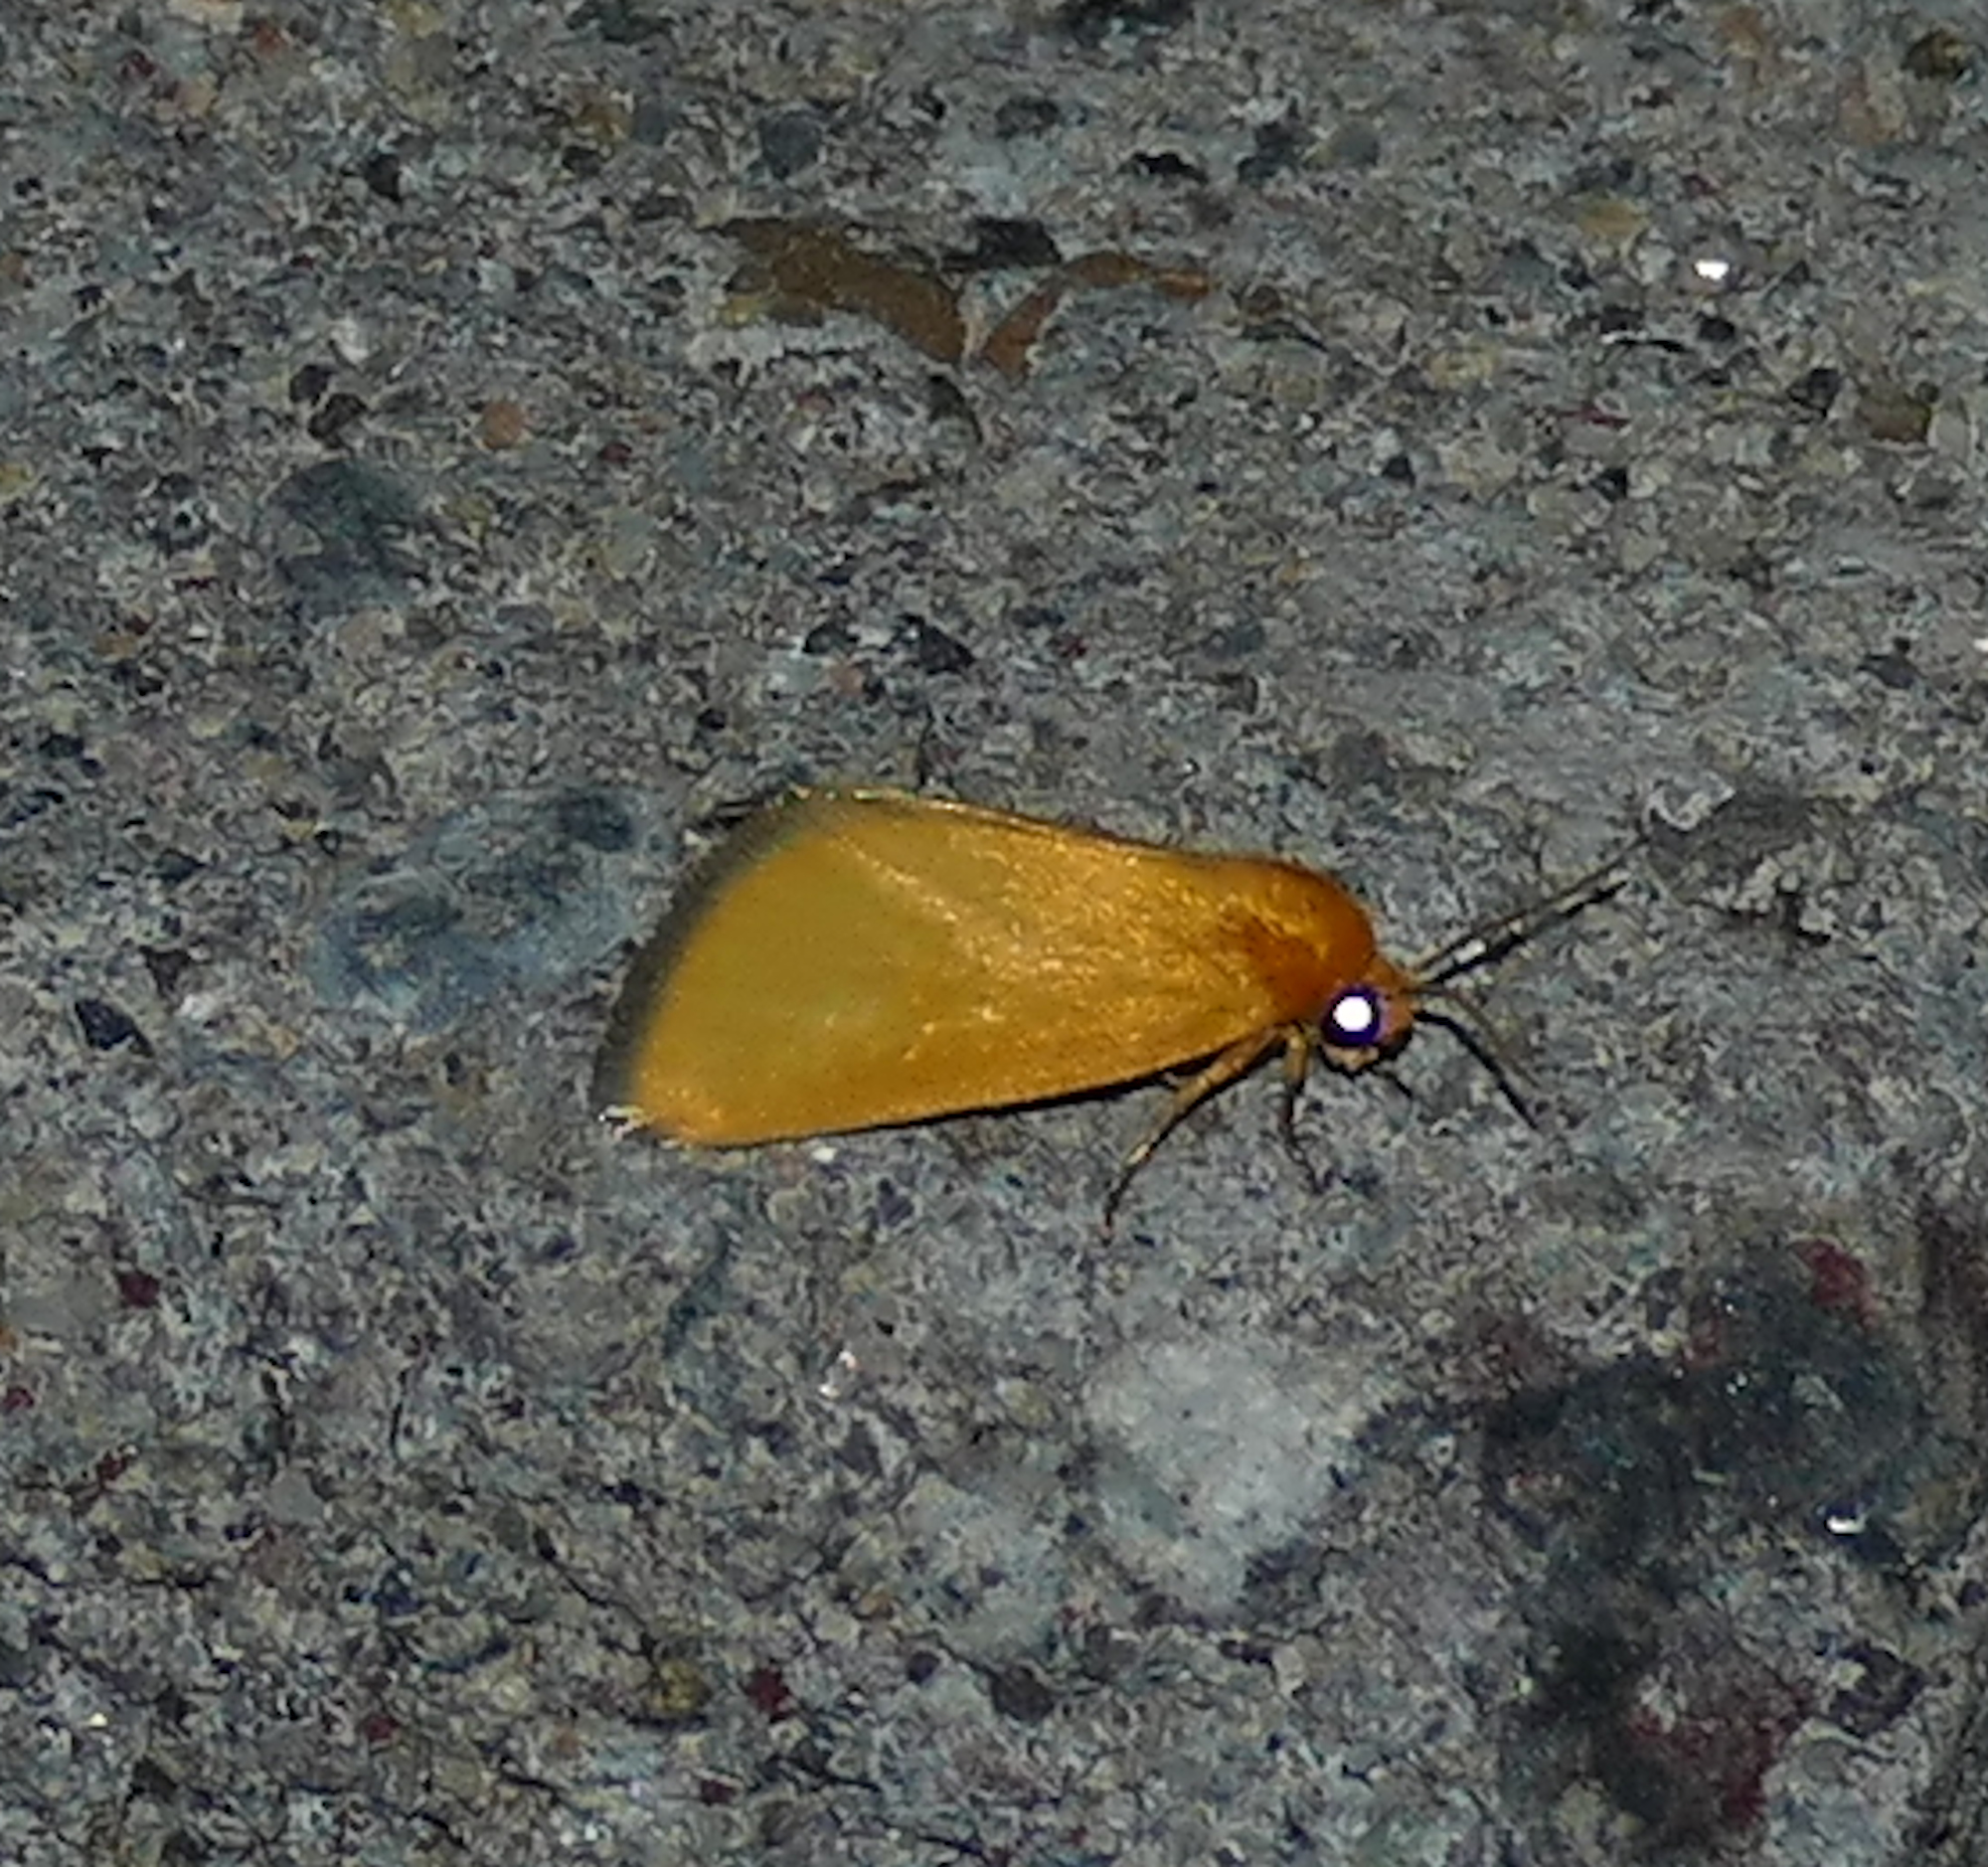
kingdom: Animalia
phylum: Arthropoda
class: Insecta
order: Lepidoptera
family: Noctuidae
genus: Antaplaga
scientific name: Antaplaga Eulithosia composita
